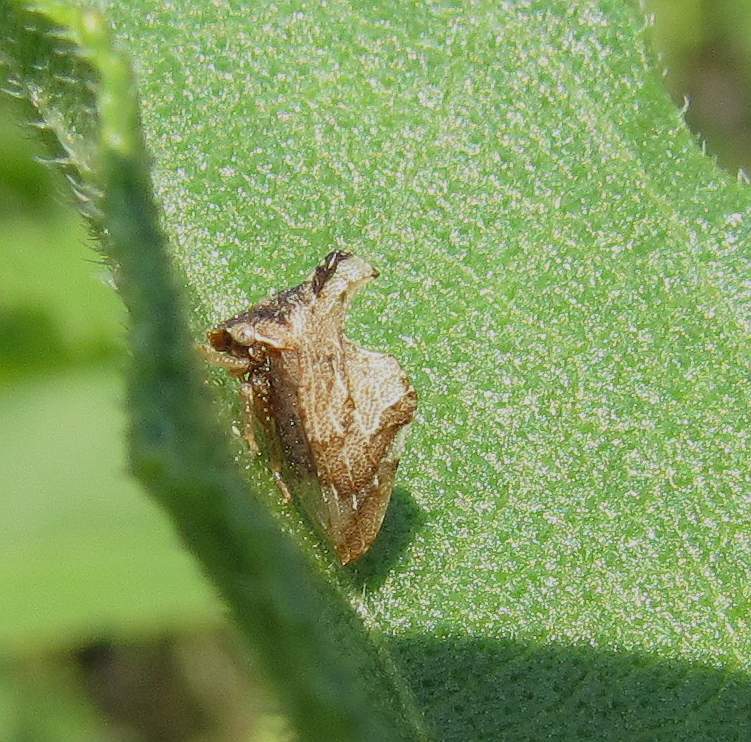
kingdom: Animalia
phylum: Arthropoda
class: Insecta
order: Hemiptera
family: Membracidae
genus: Entylia
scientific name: Entylia carinata
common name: Keeled treehopper
